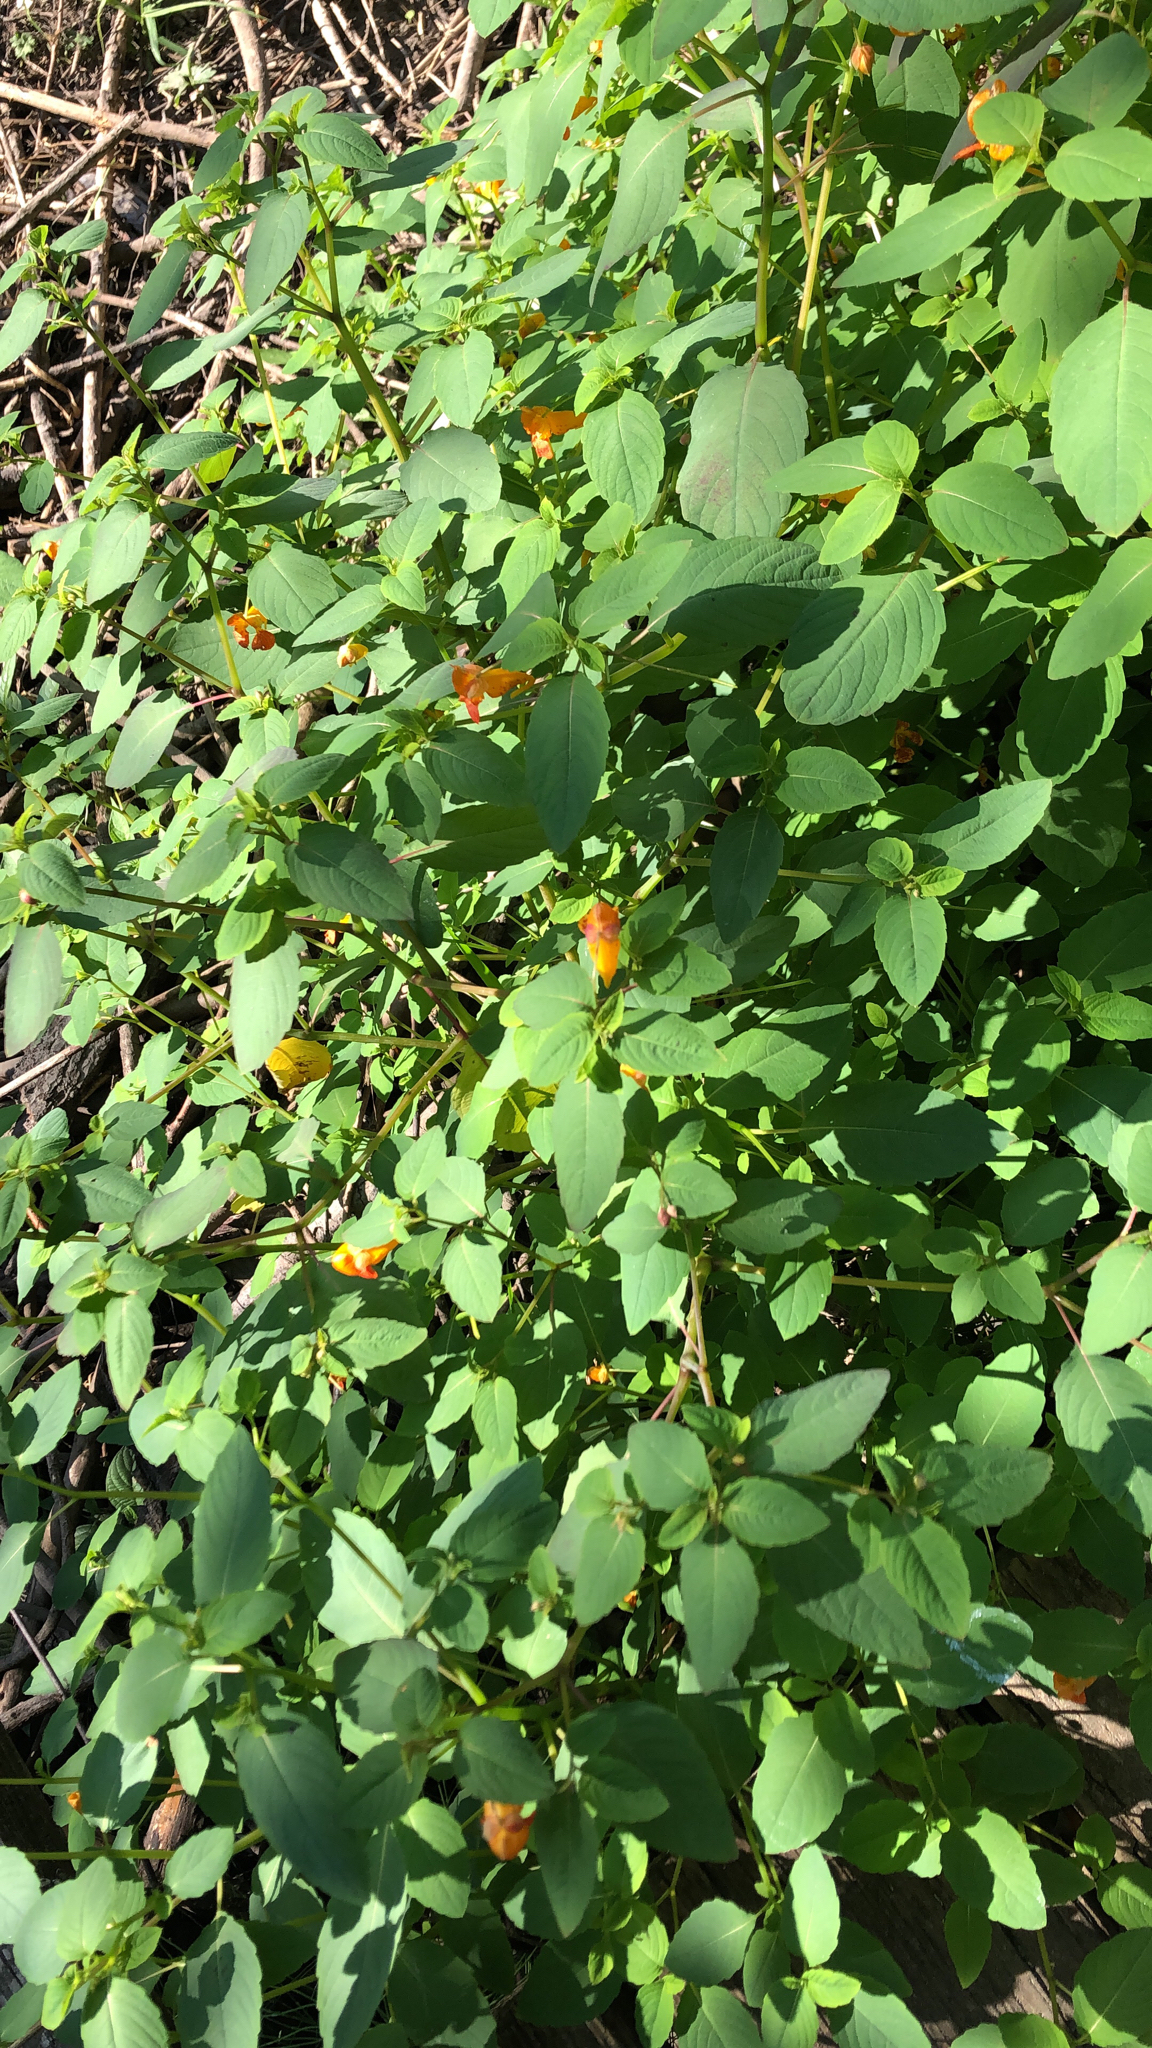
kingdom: Plantae
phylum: Tracheophyta
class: Magnoliopsida
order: Ericales
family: Balsaminaceae
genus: Impatiens
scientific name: Impatiens capensis
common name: Orange balsam
